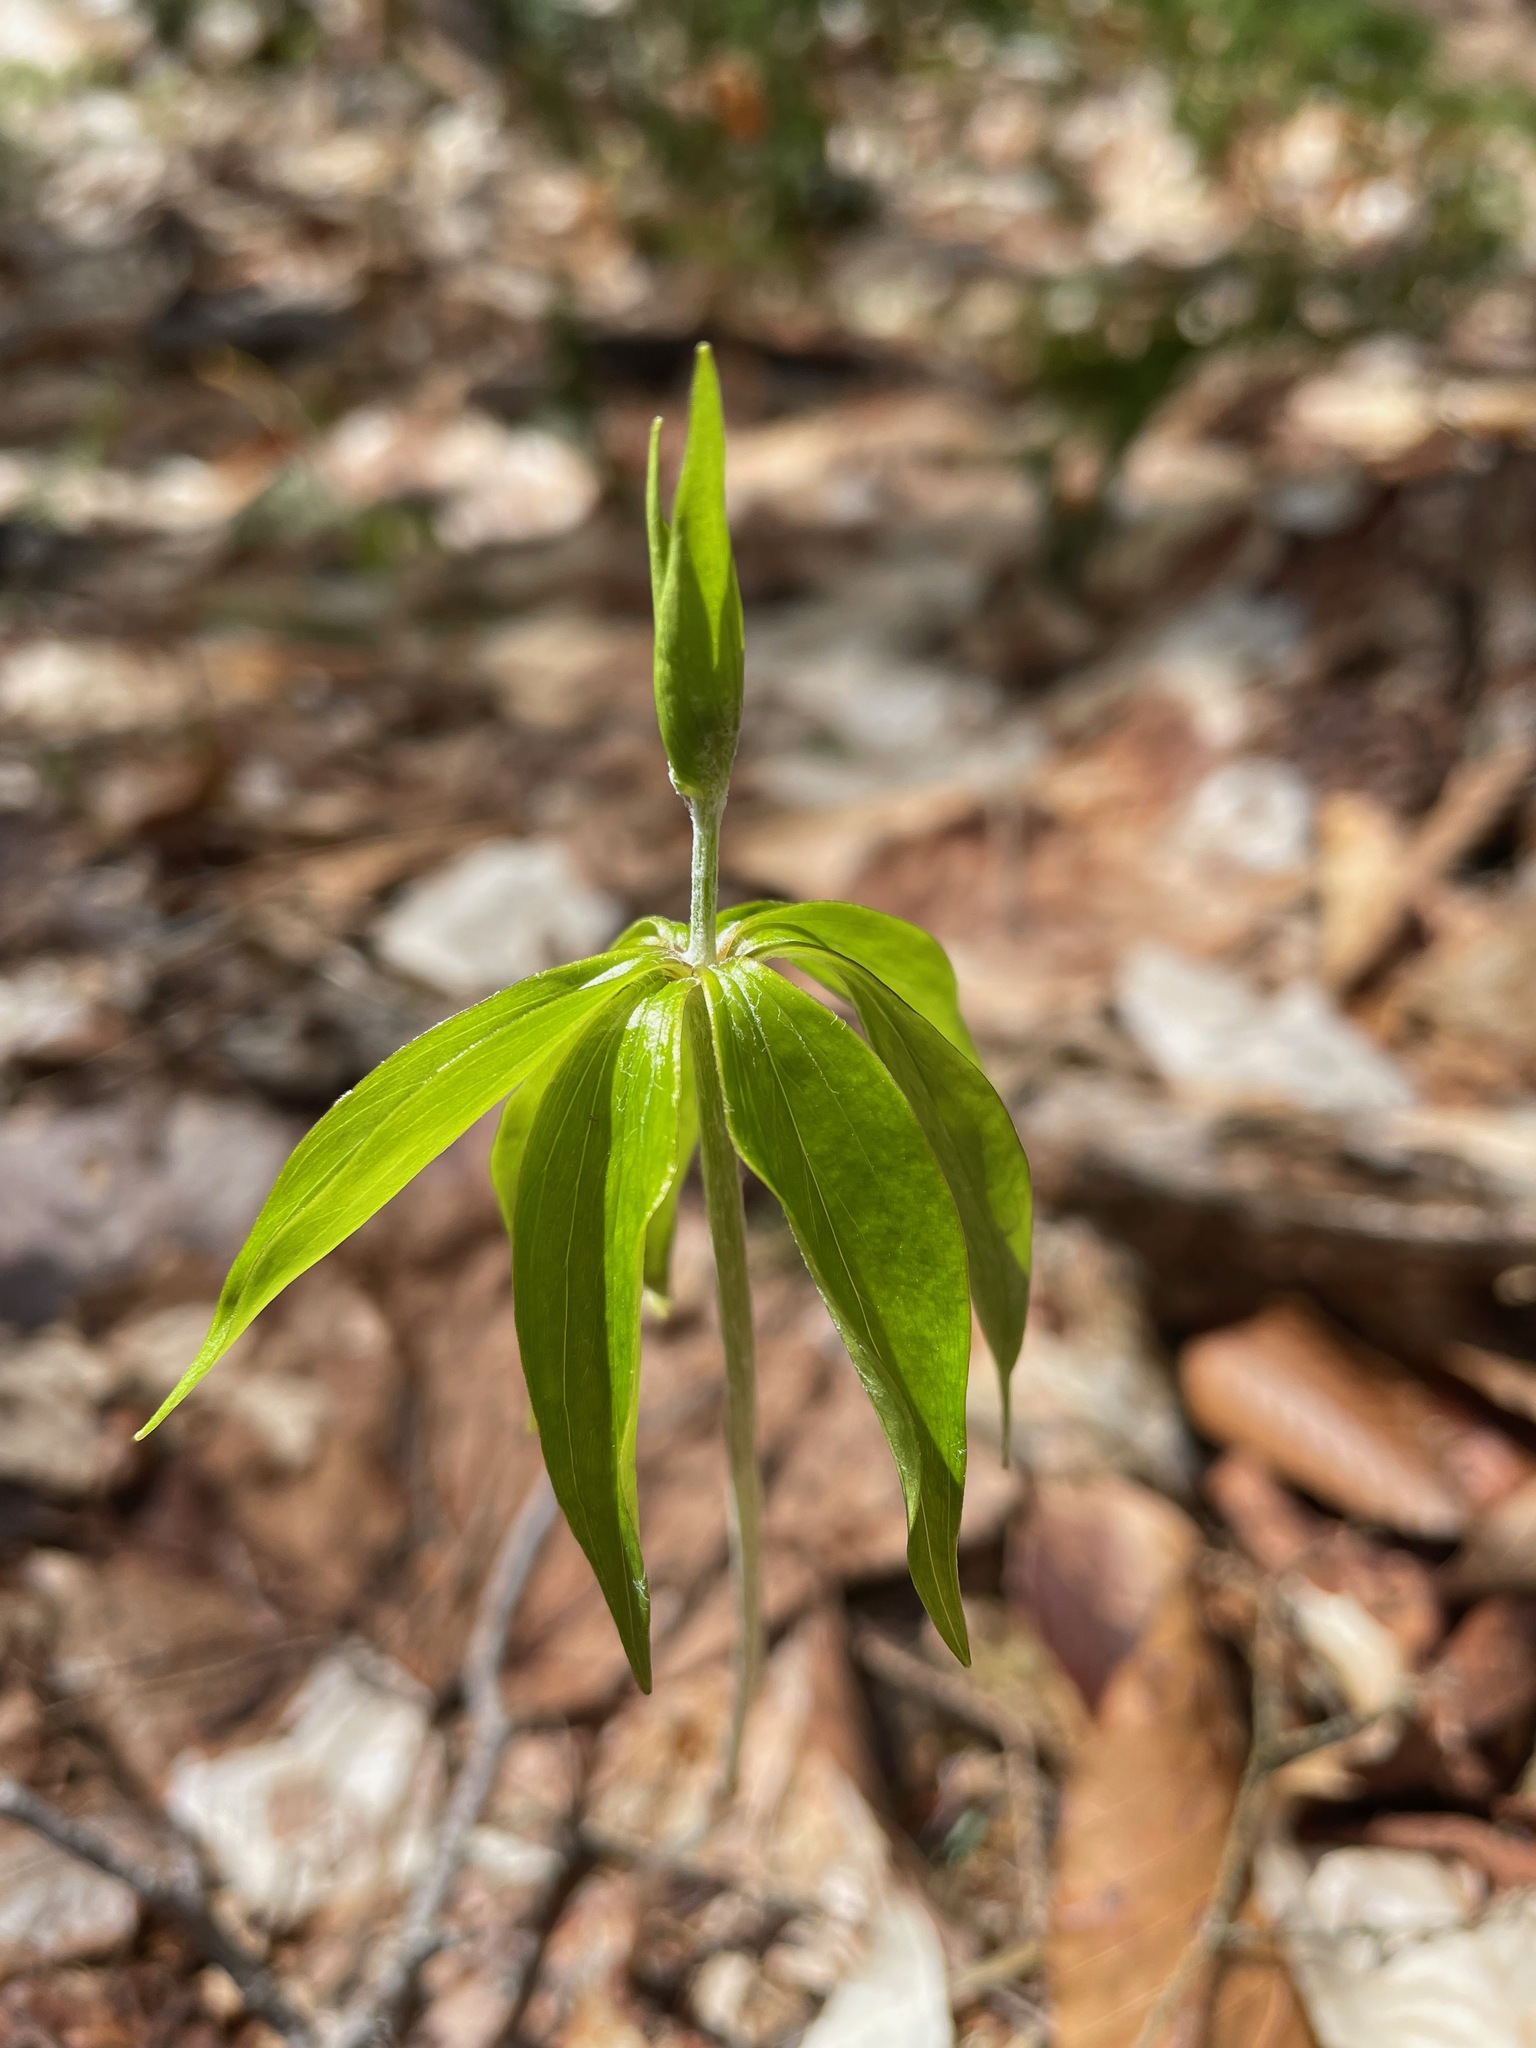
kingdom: Plantae
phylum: Tracheophyta
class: Liliopsida
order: Liliales
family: Liliaceae
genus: Medeola
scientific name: Medeola virginiana
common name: Indian cucumber-root
